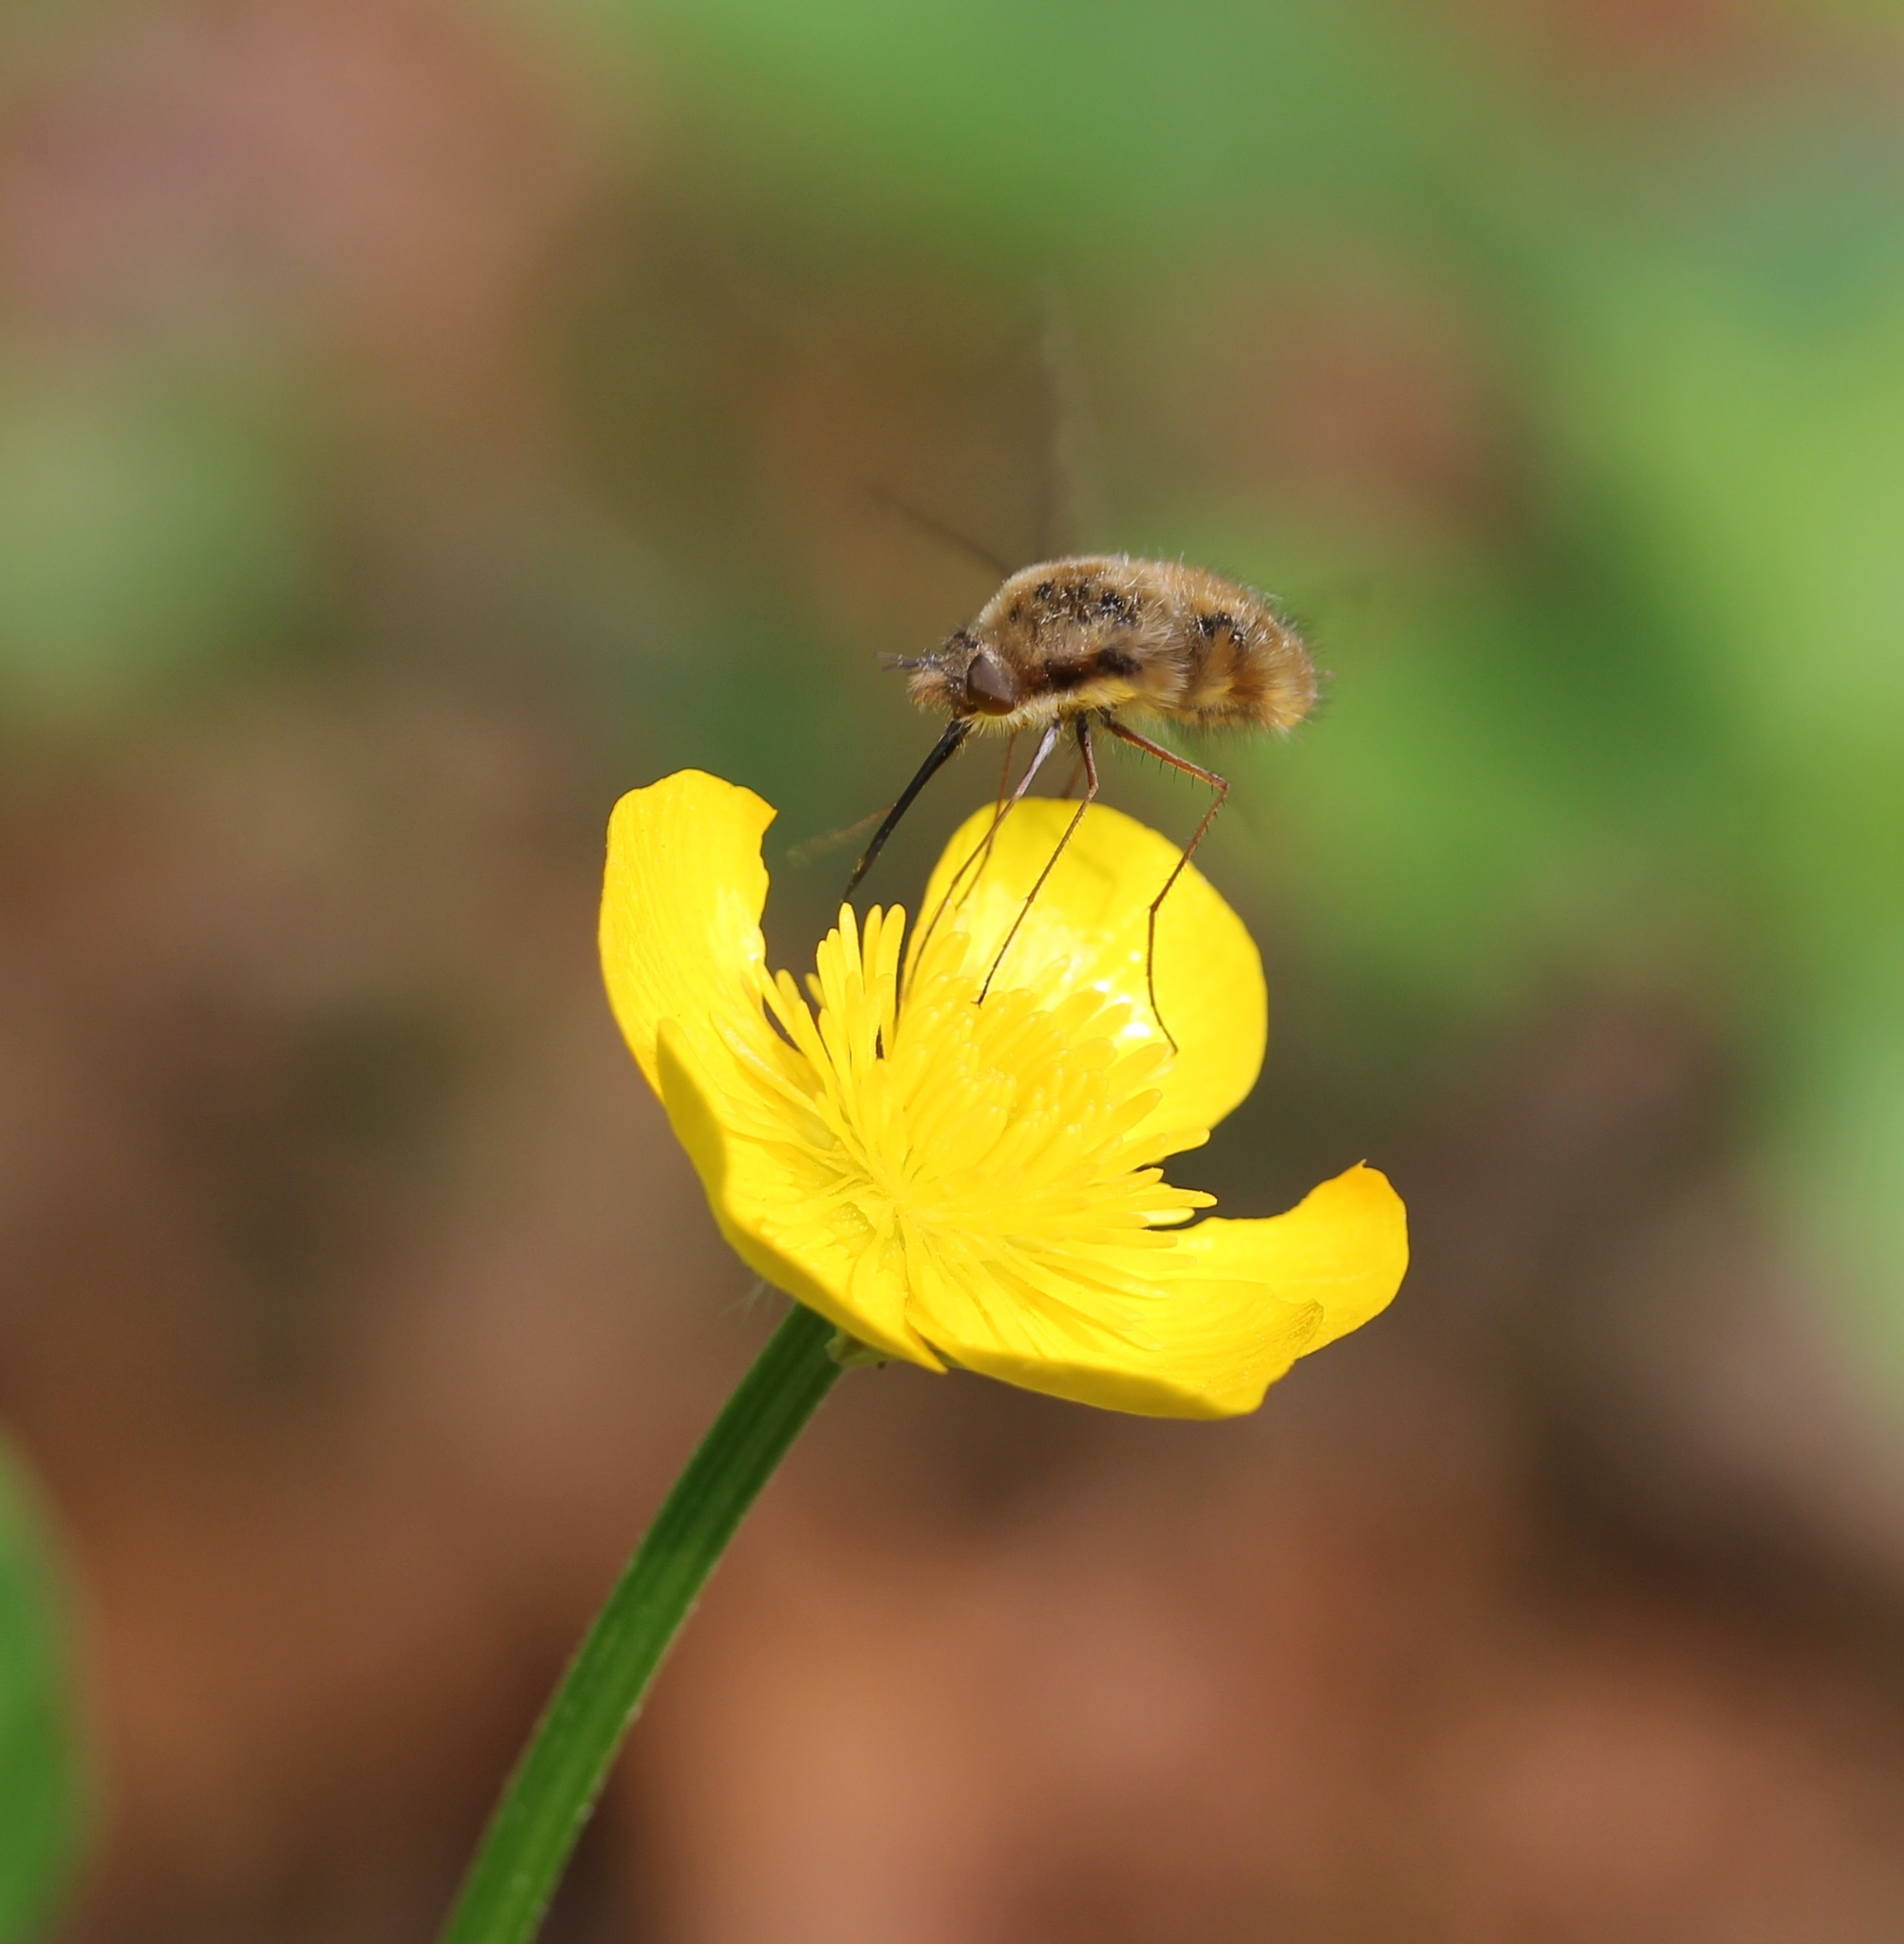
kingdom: Animalia
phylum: Arthropoda
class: Insecta
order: Diptera
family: Bombyliidae
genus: Bombylius
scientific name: Bombylius major
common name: Bee fly
